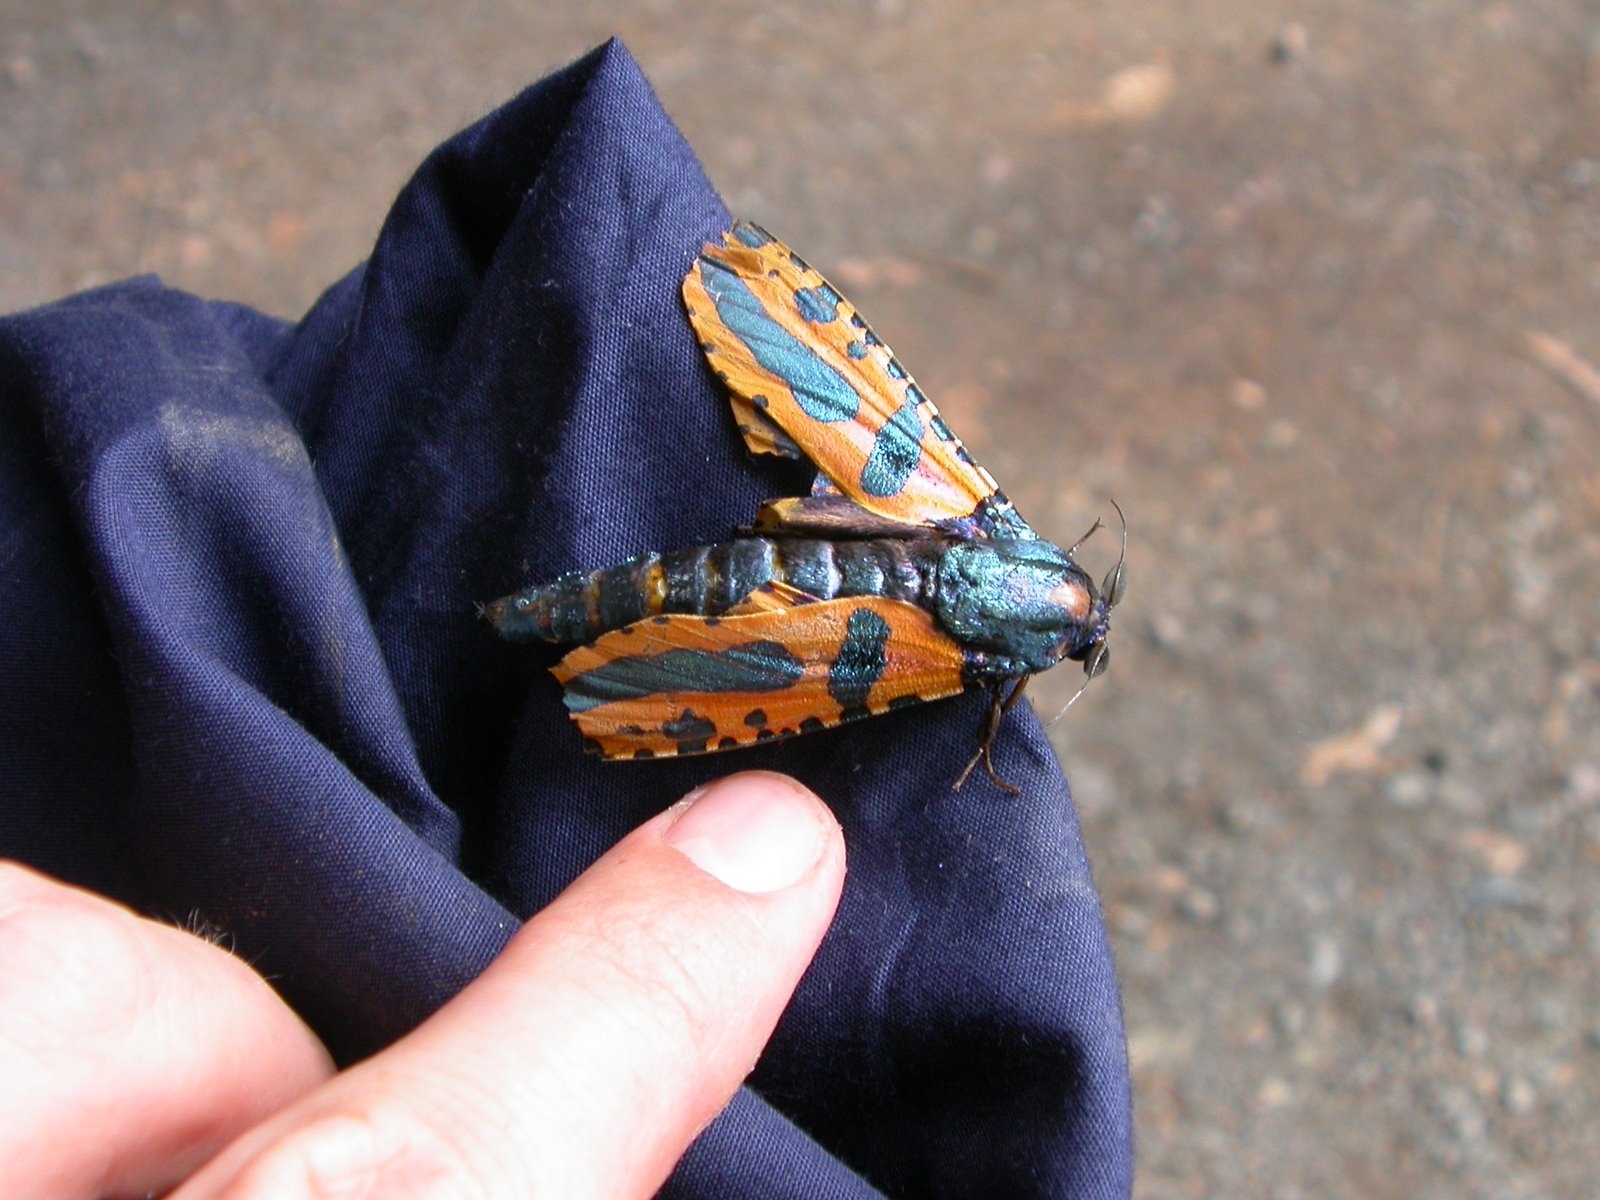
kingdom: Animalia
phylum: Arthropoda
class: Insecta
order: Lepidoptera
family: Cossidae
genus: Chalcidica
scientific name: Chalcidica minea
